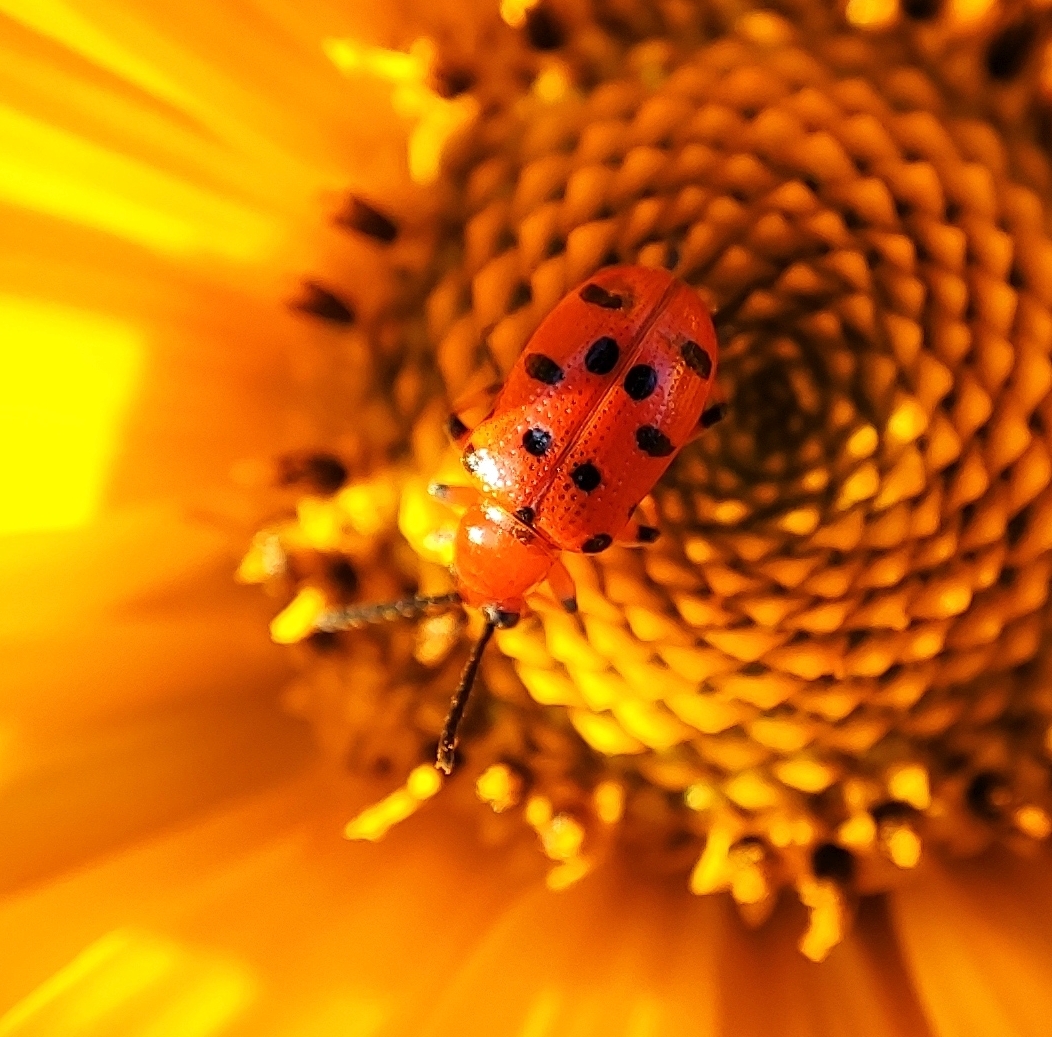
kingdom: Animalia
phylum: Arthropoda
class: Insecta
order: Coleoptera
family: Chrysomelidae
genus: Crioceris
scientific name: Crioceris duodecimpunctata
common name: Twelve-spotted asparagus beetle
